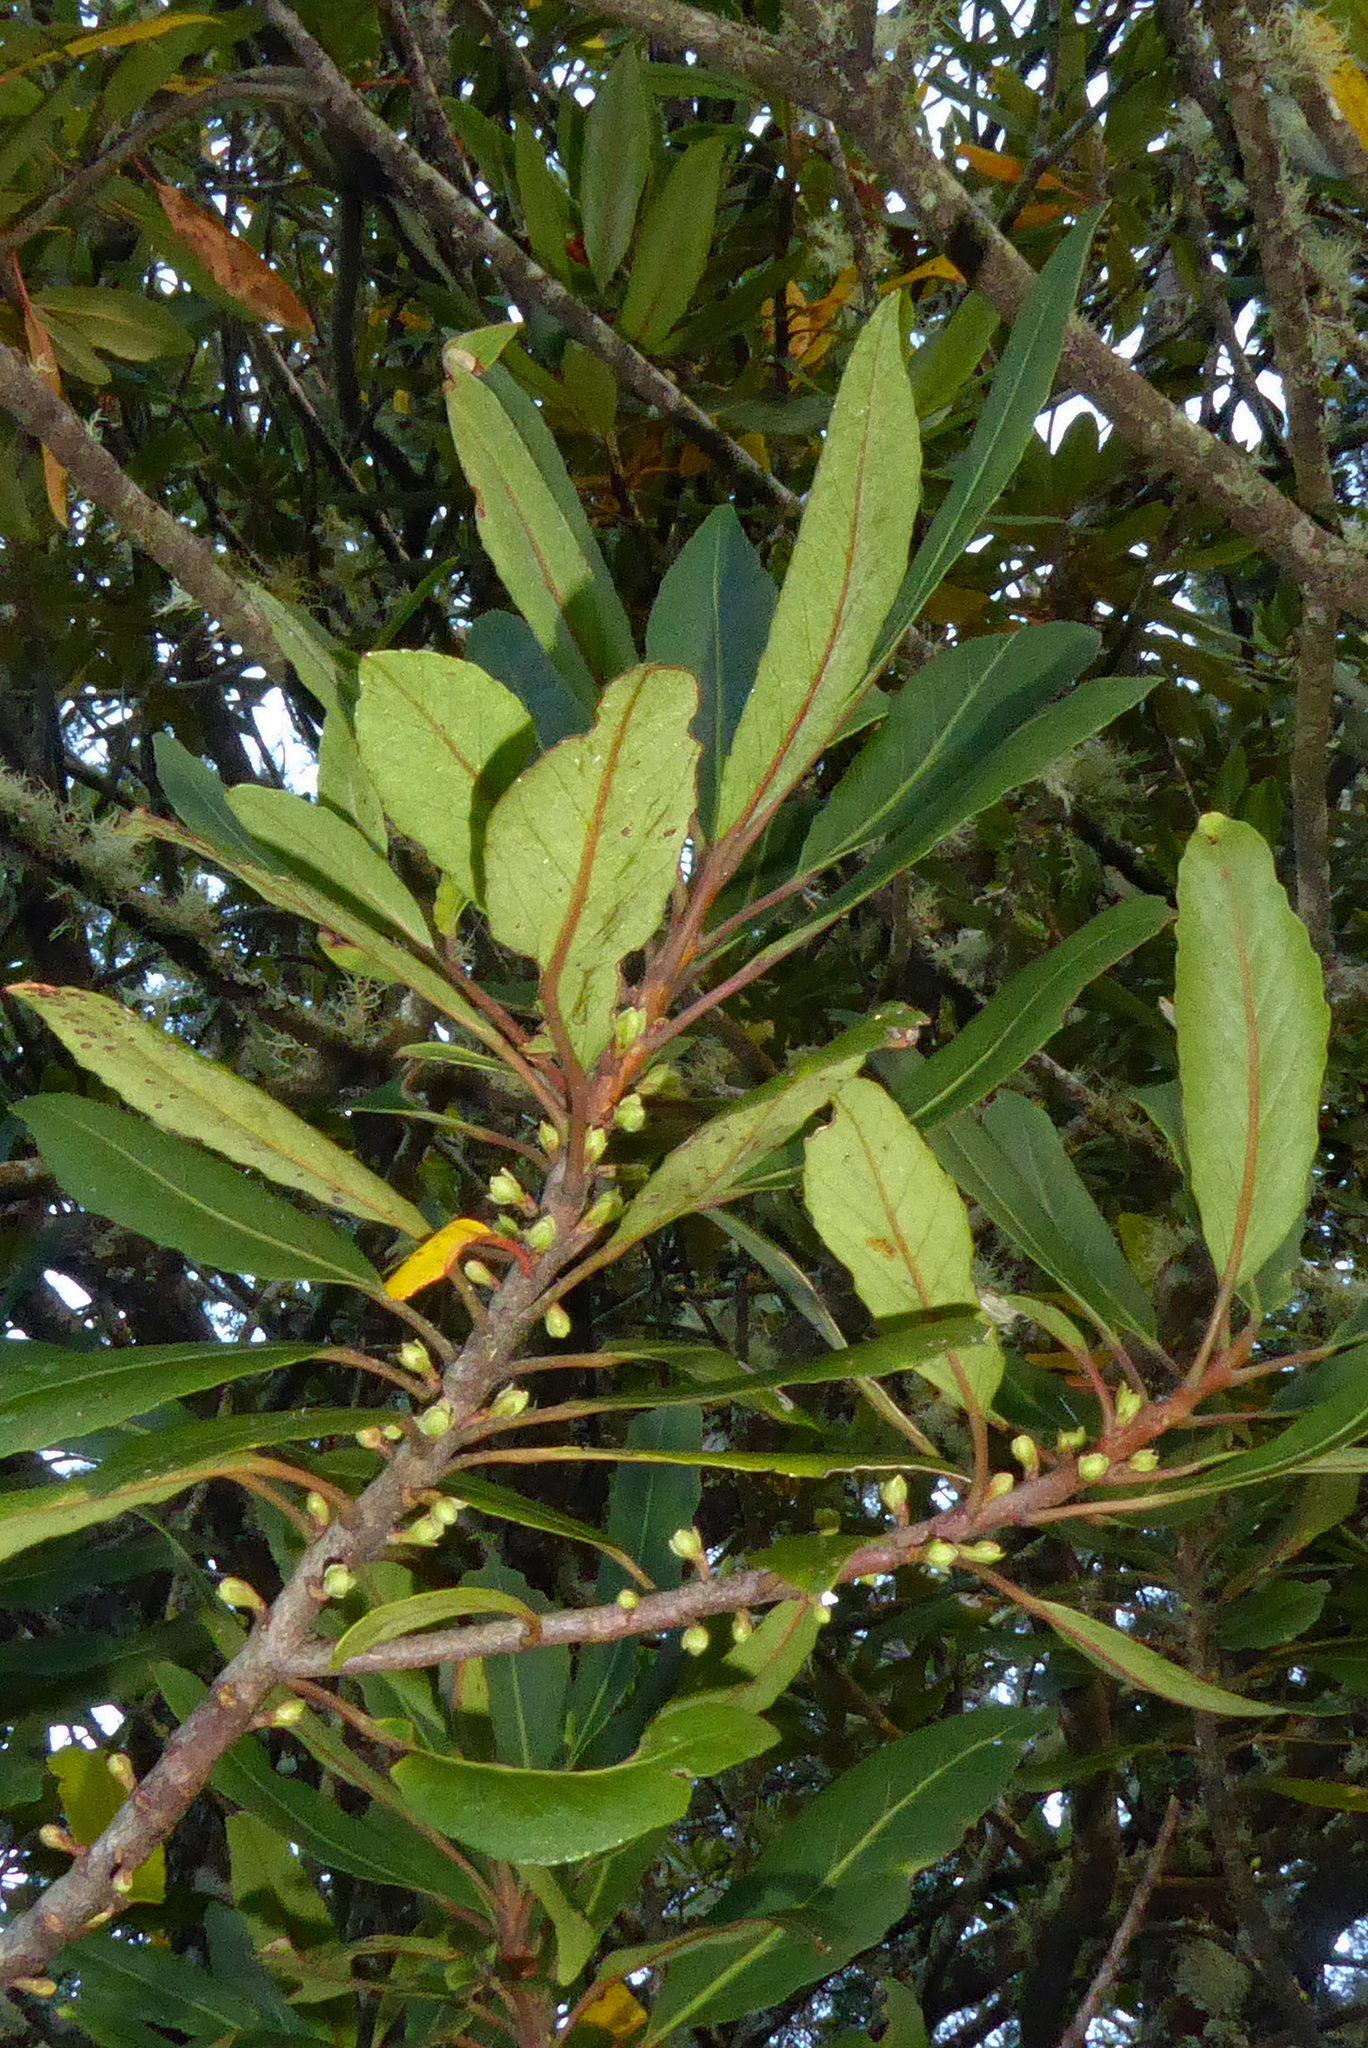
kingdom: Plantae
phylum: Tracheophyta
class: Magnoliopsida
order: Oxalidales
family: Elaeocarpaceae
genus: Elaeocarpus
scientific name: Elaeocarpus hookerianus
